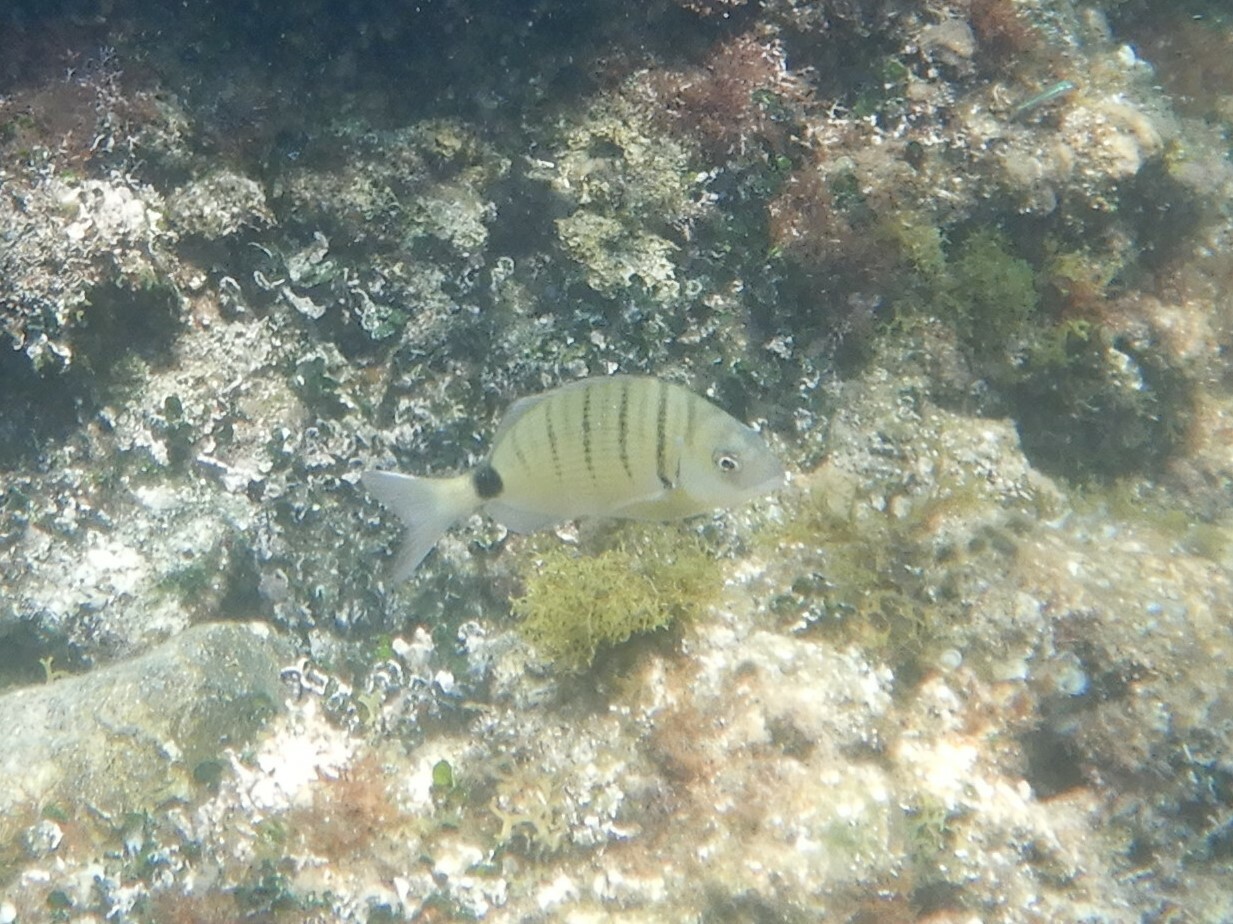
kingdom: Animalia
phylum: Chordata
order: Perciformes
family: Sparidae
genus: Diplodus
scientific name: Diplodus sargus
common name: White seabream
